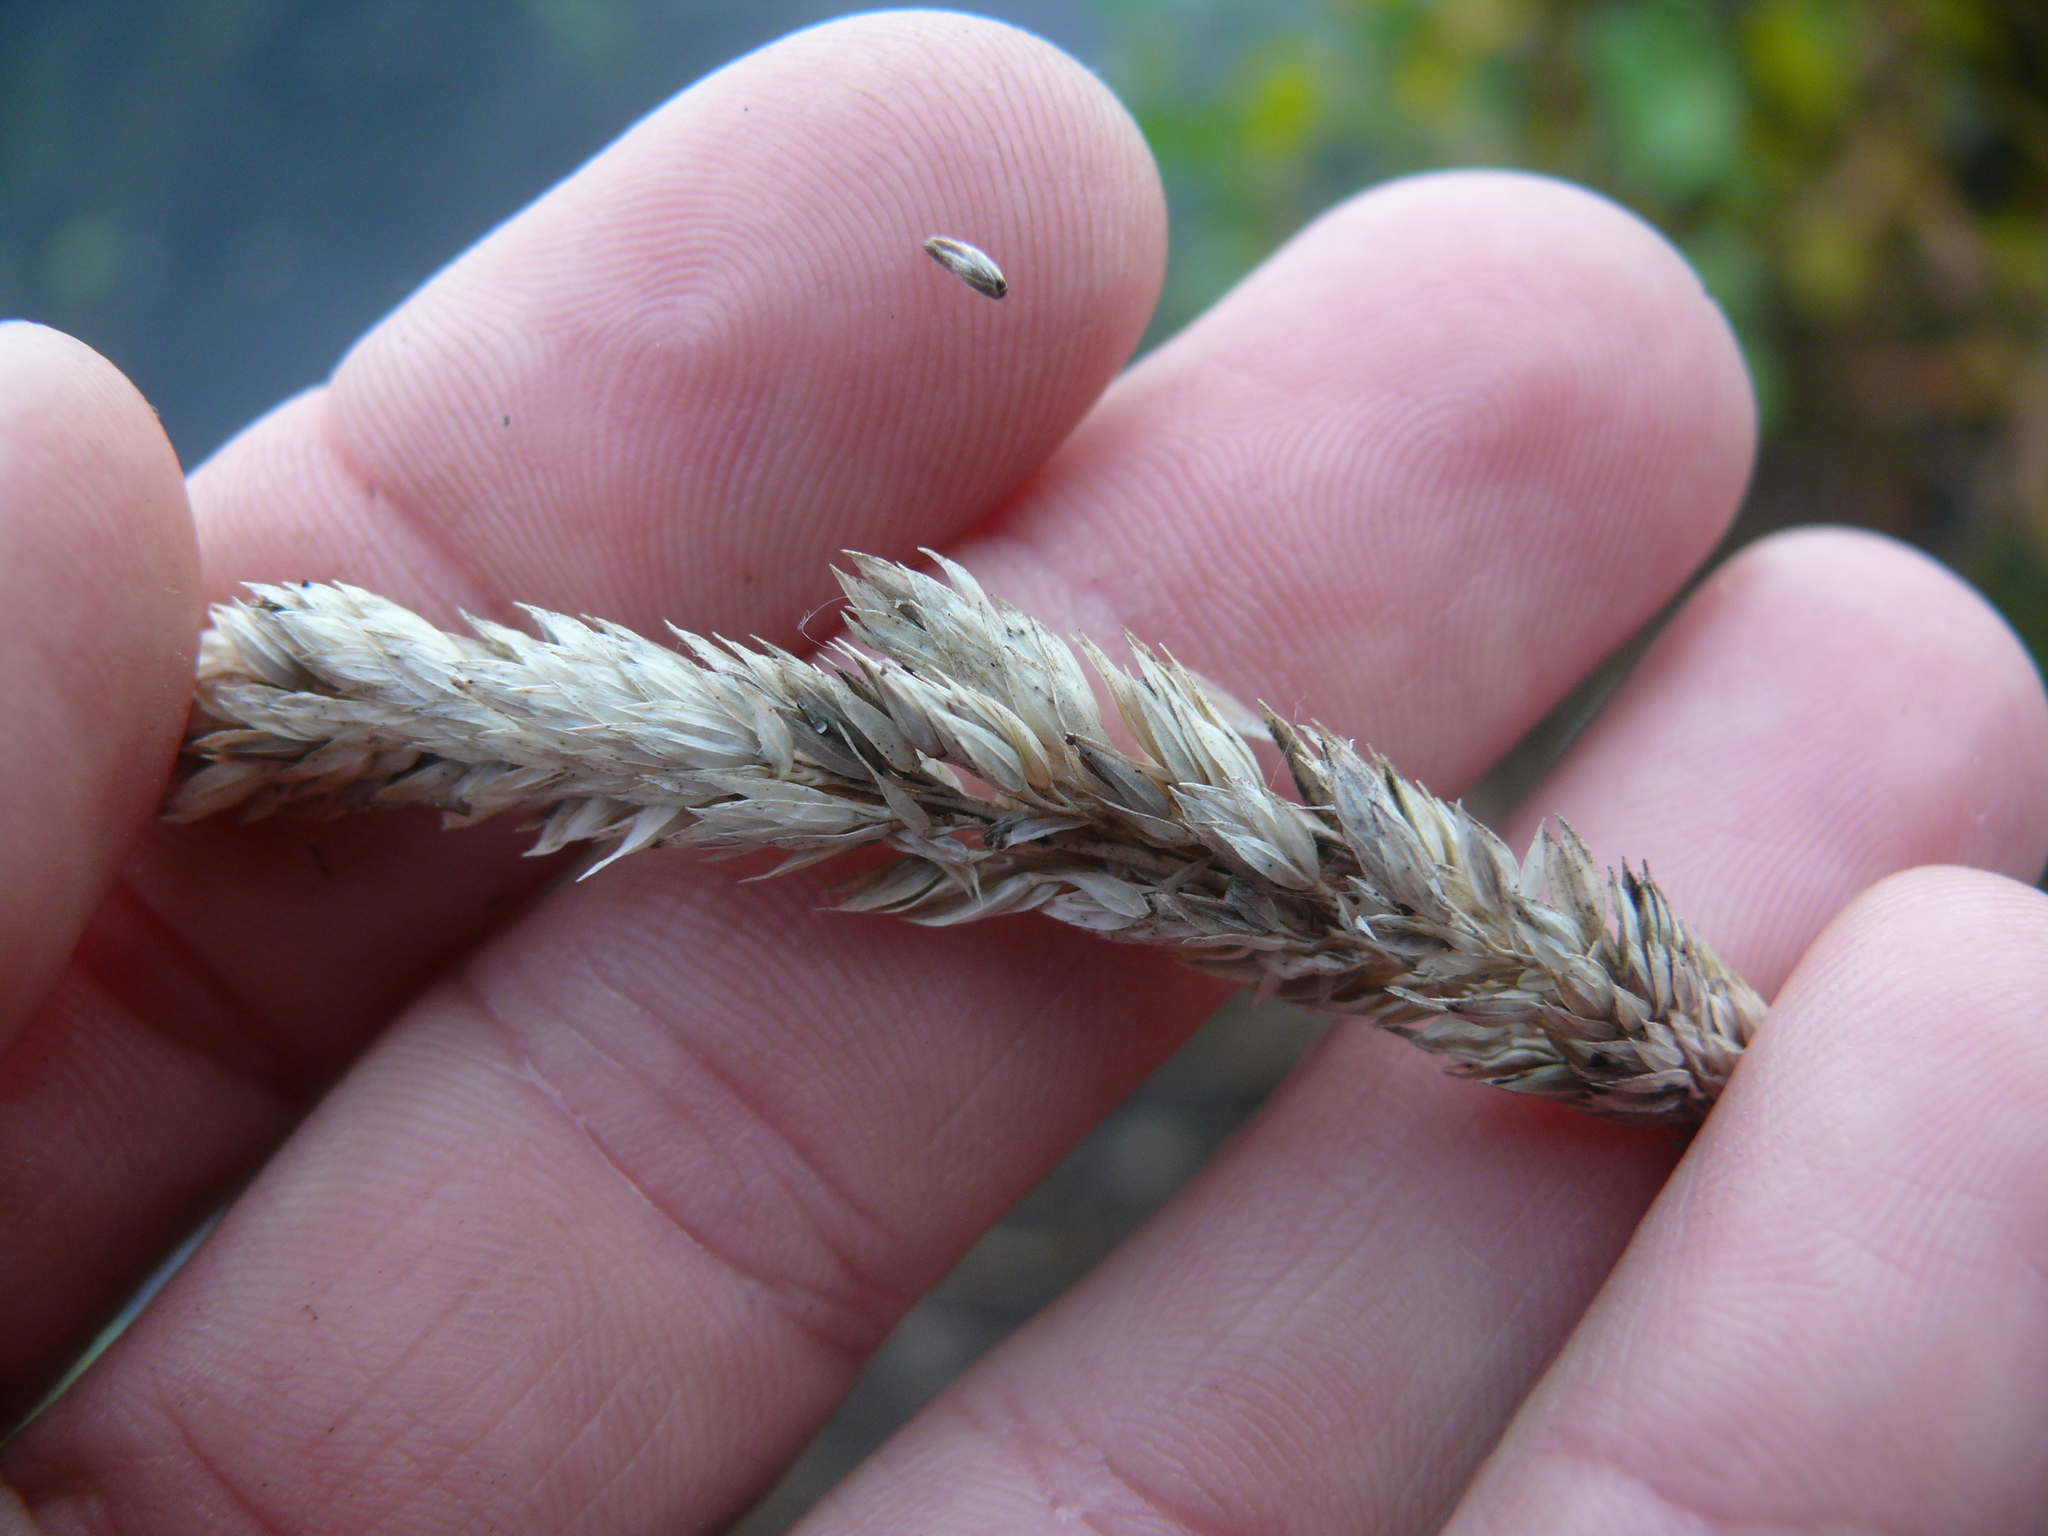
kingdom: Plantae
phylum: Tracheophyta
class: Liliopsida
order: Poales
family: Poaceae
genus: Phalaris
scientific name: Phalaris arundinacea
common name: Reed canary-grass
